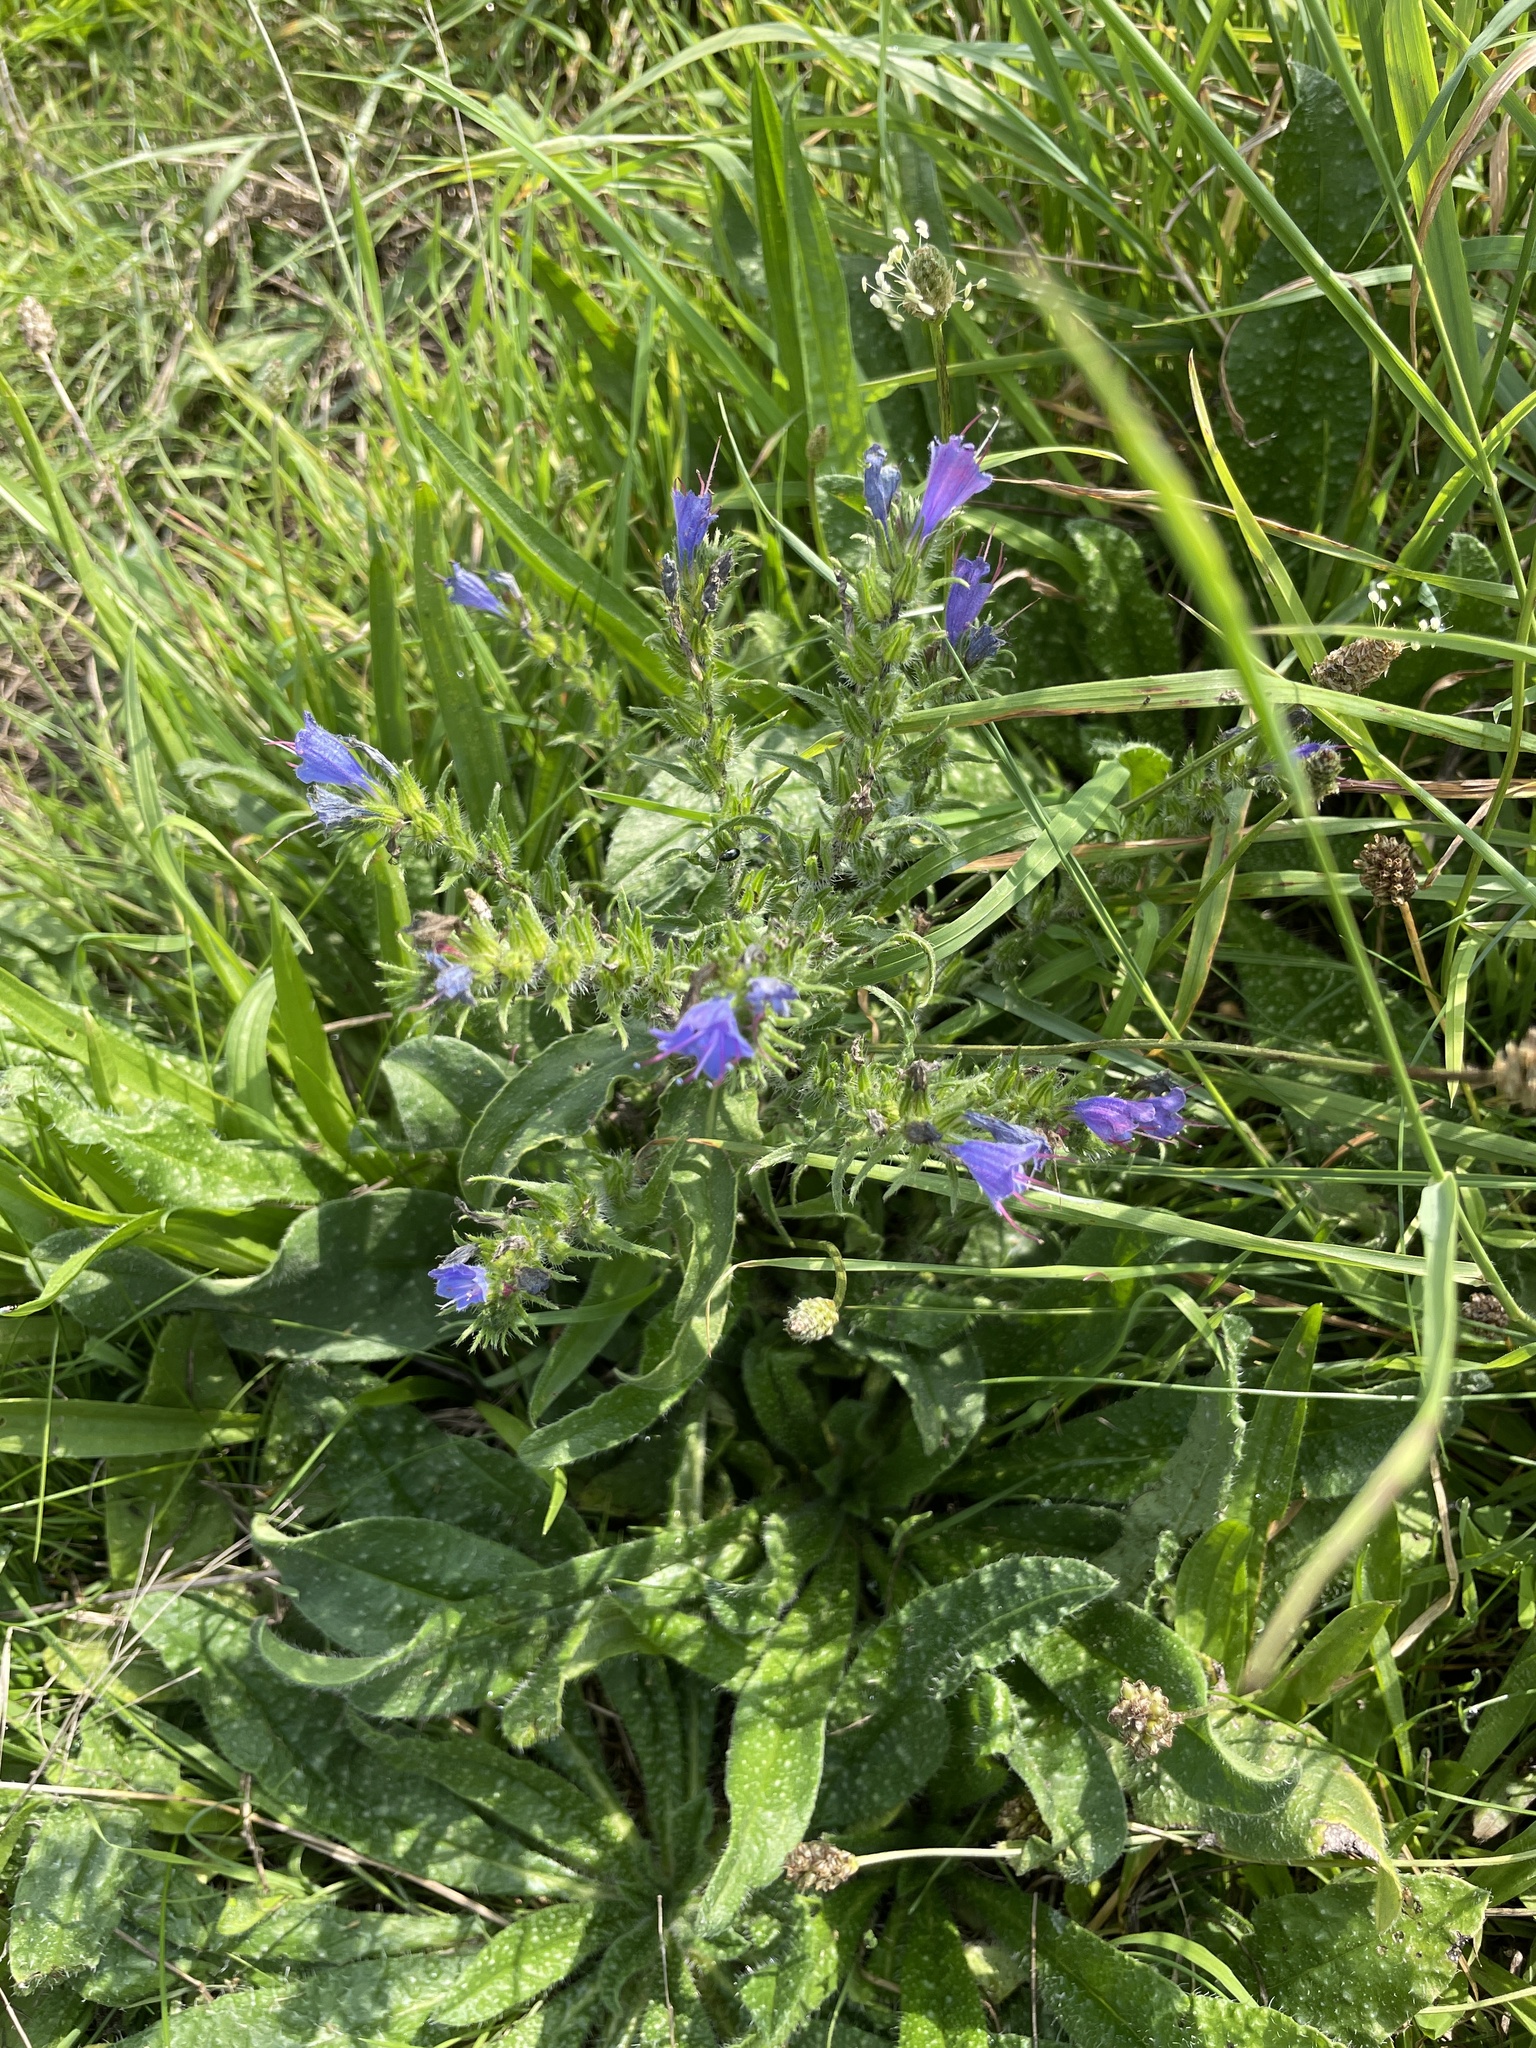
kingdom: Plantae
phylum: Tracheophyta
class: Magnoliopsida
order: Boraginales
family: Boraginaceae
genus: Echium
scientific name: Echium vulgare
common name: Common viper's bugloss
